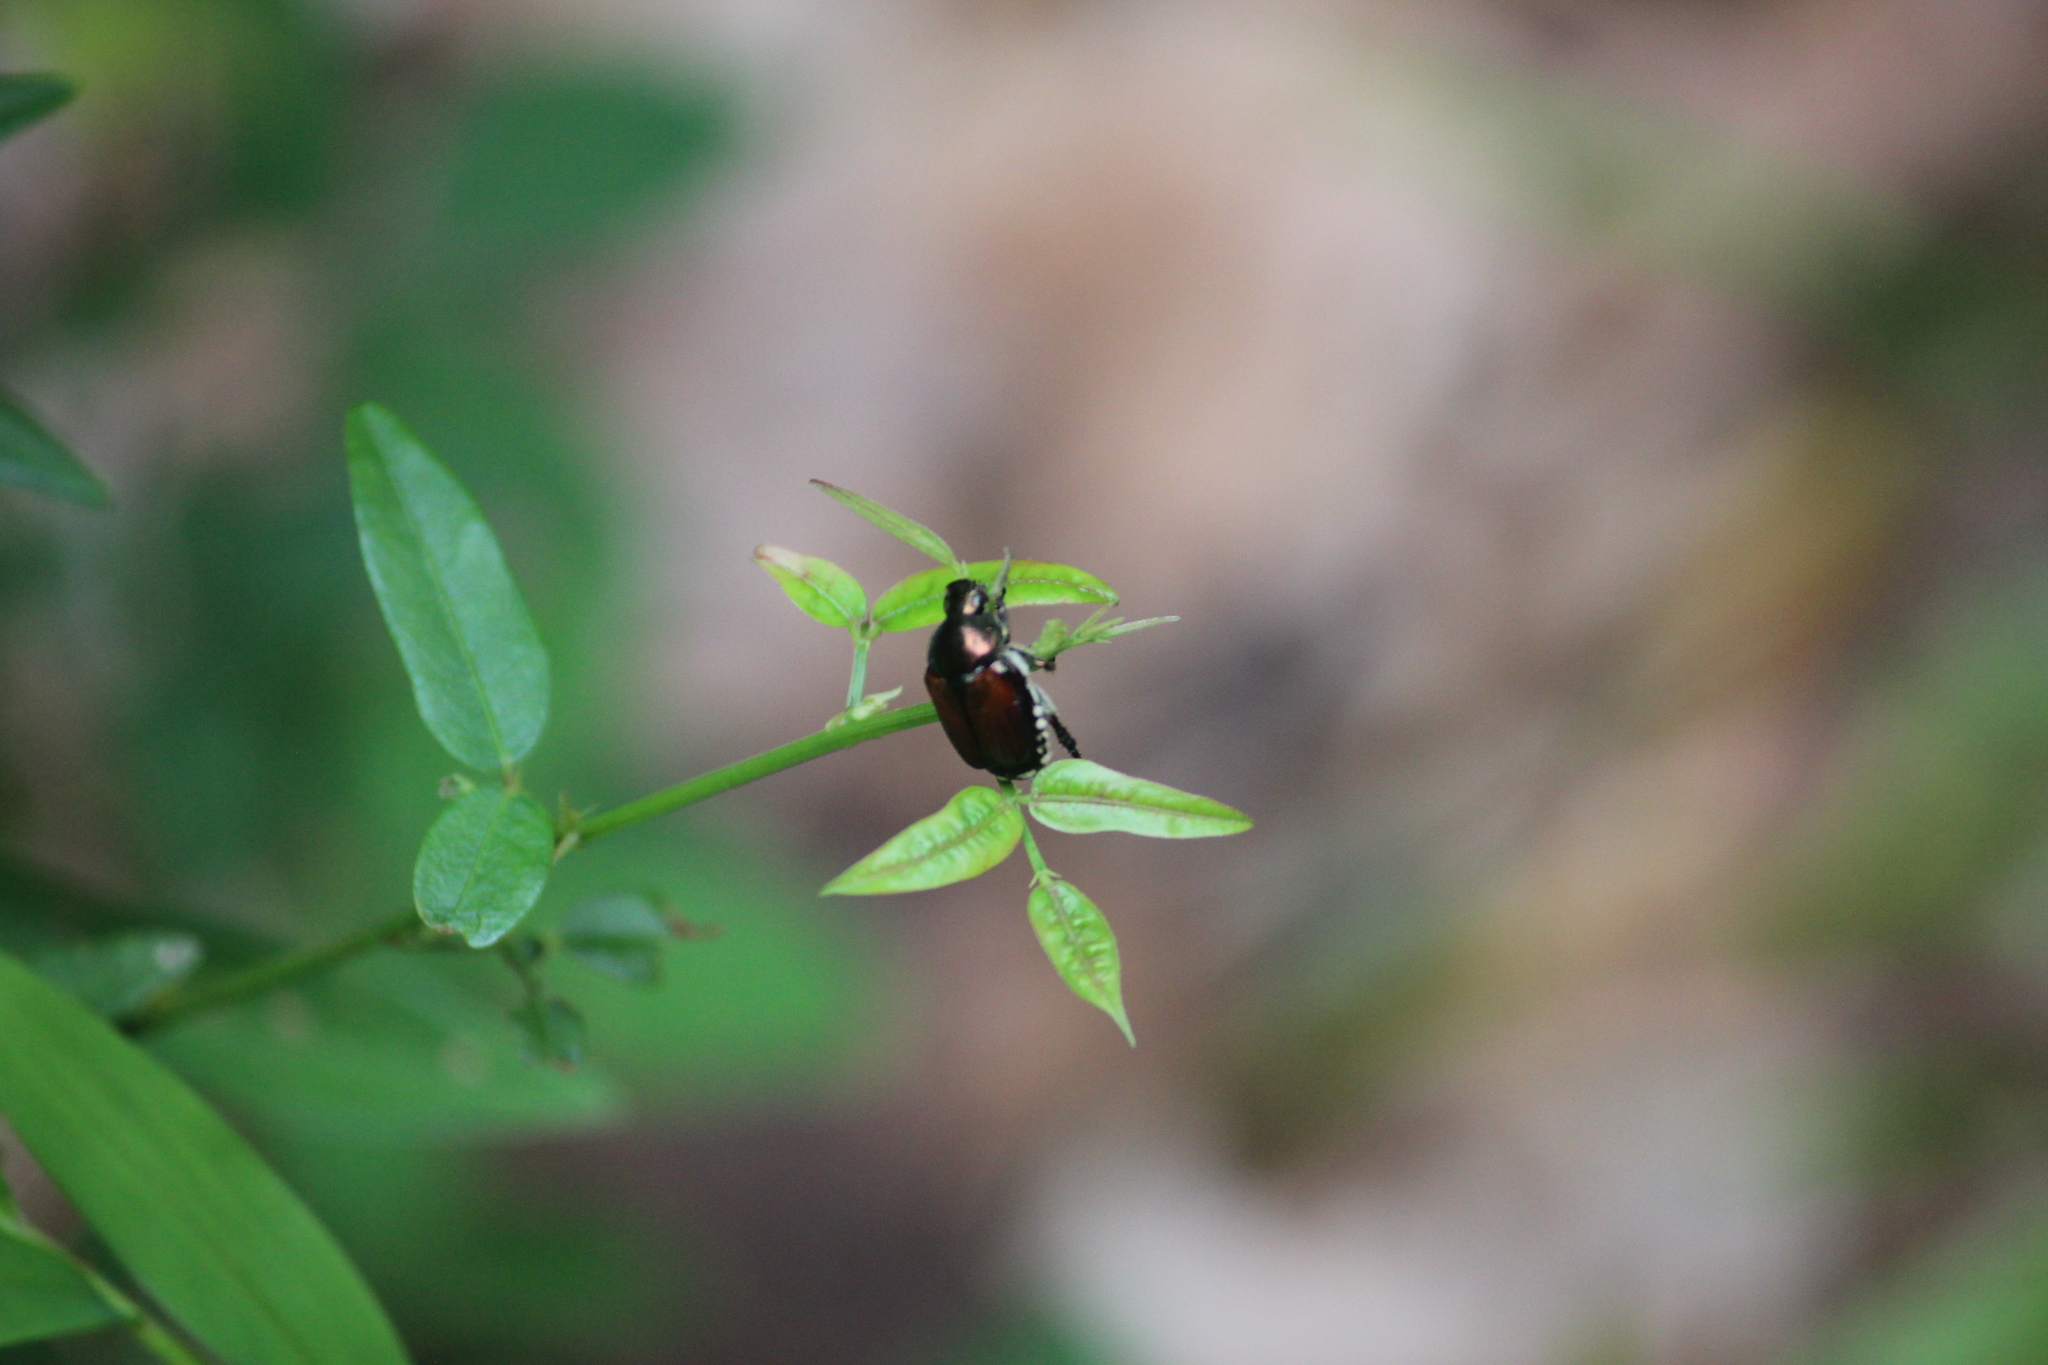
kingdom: Animalia
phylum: Arthropoda
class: Insecta
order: Coleoptera
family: Scarabaeidae
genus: Popillia
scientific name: Popillia japonica
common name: Japanese beetle
